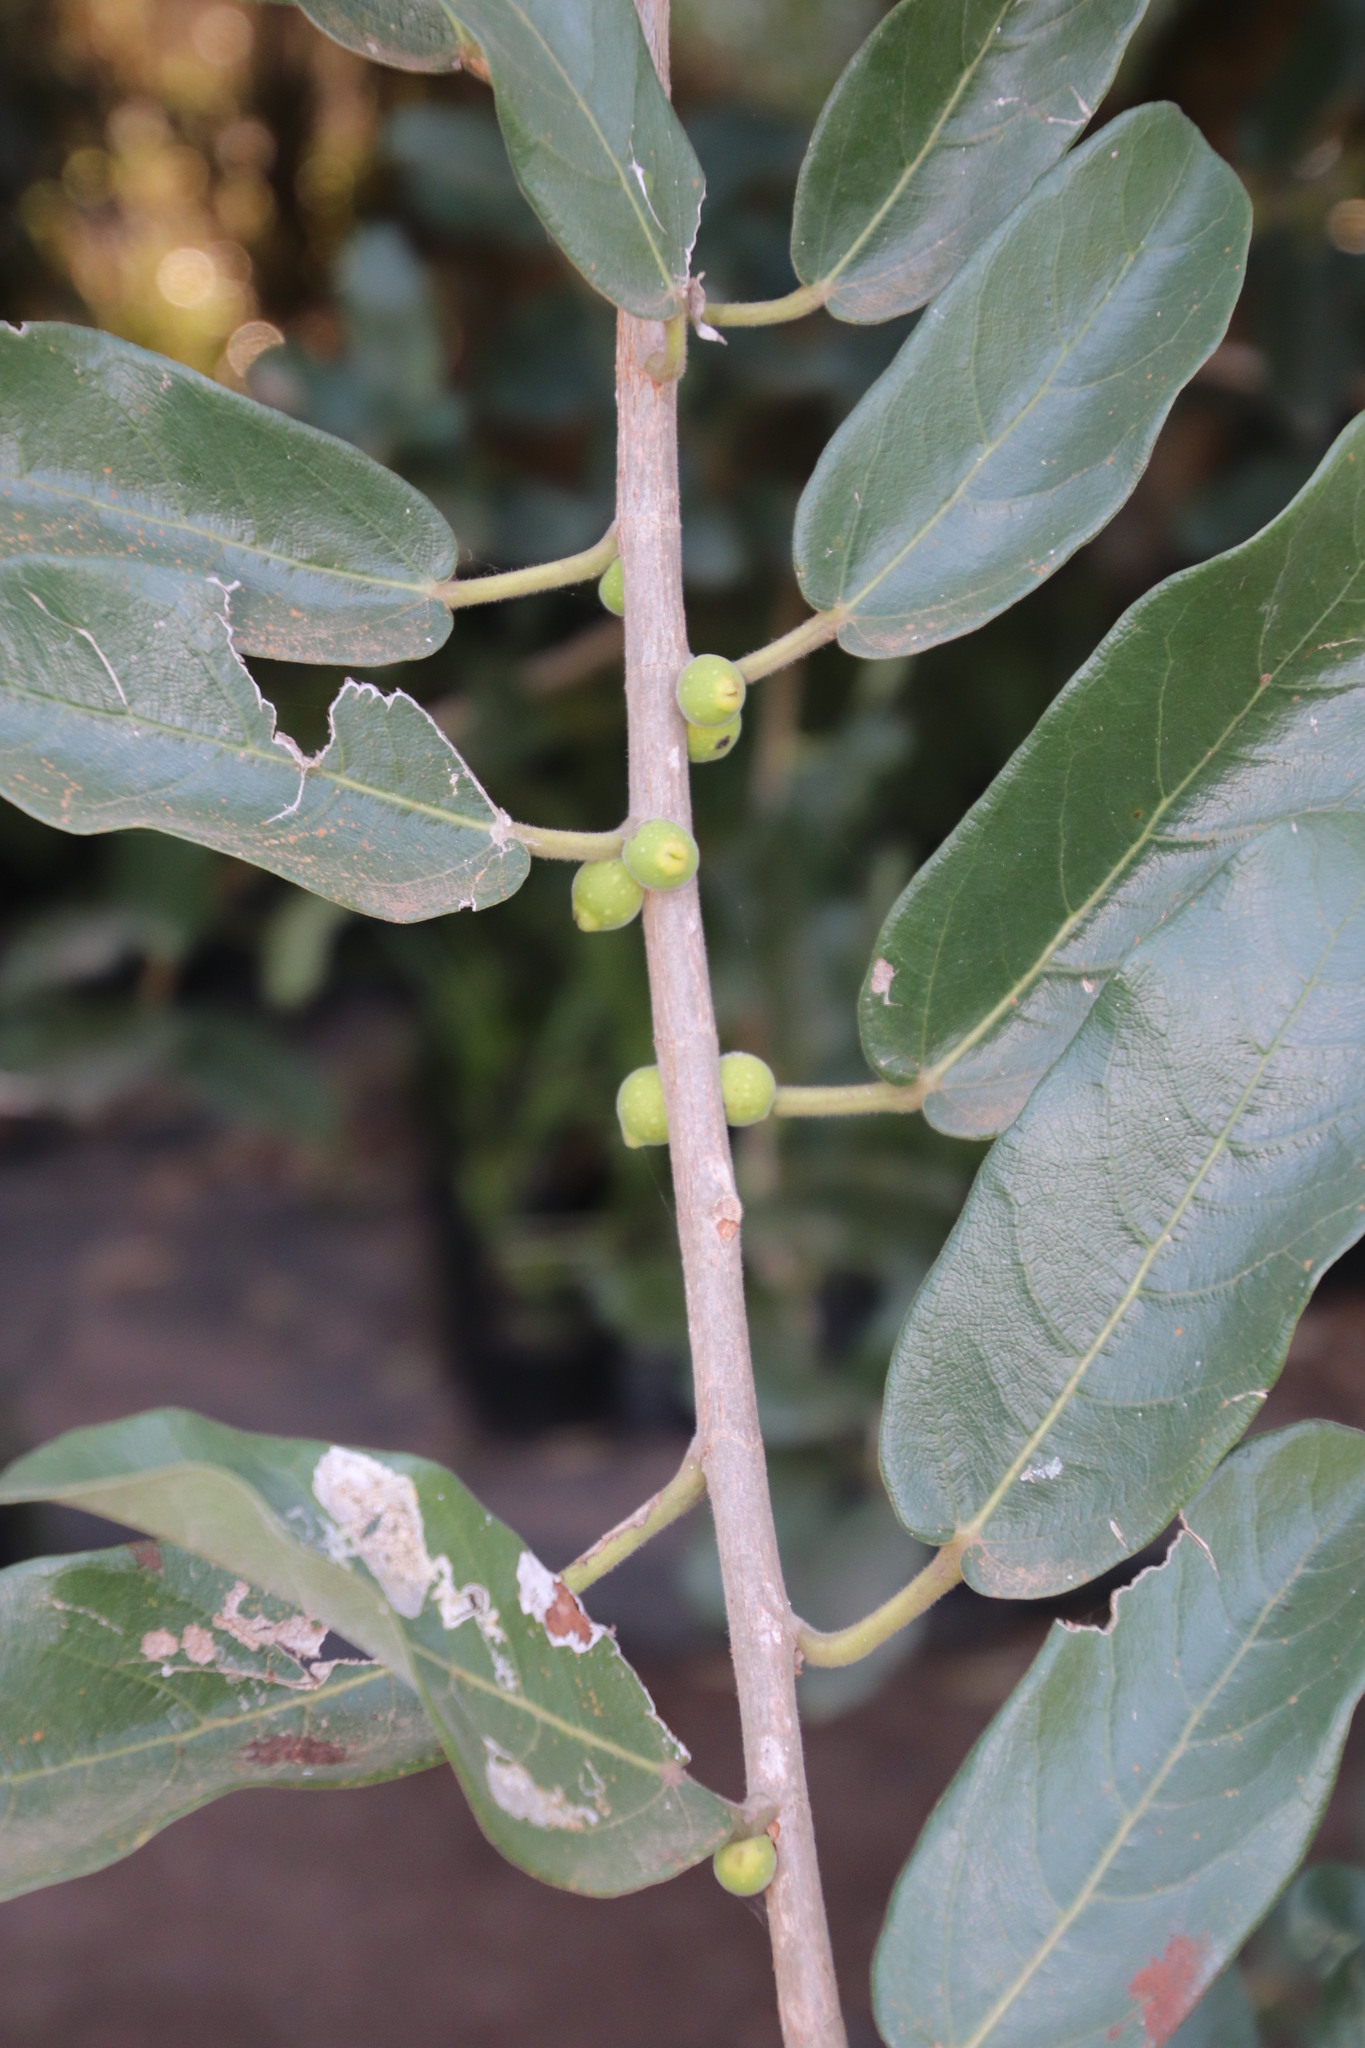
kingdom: Plantae
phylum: Tracheophyta
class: Magnoliopsida
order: Rosales
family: Moraceae
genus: Ficus
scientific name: Ficus stuhlmannii
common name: Lowveld fig
